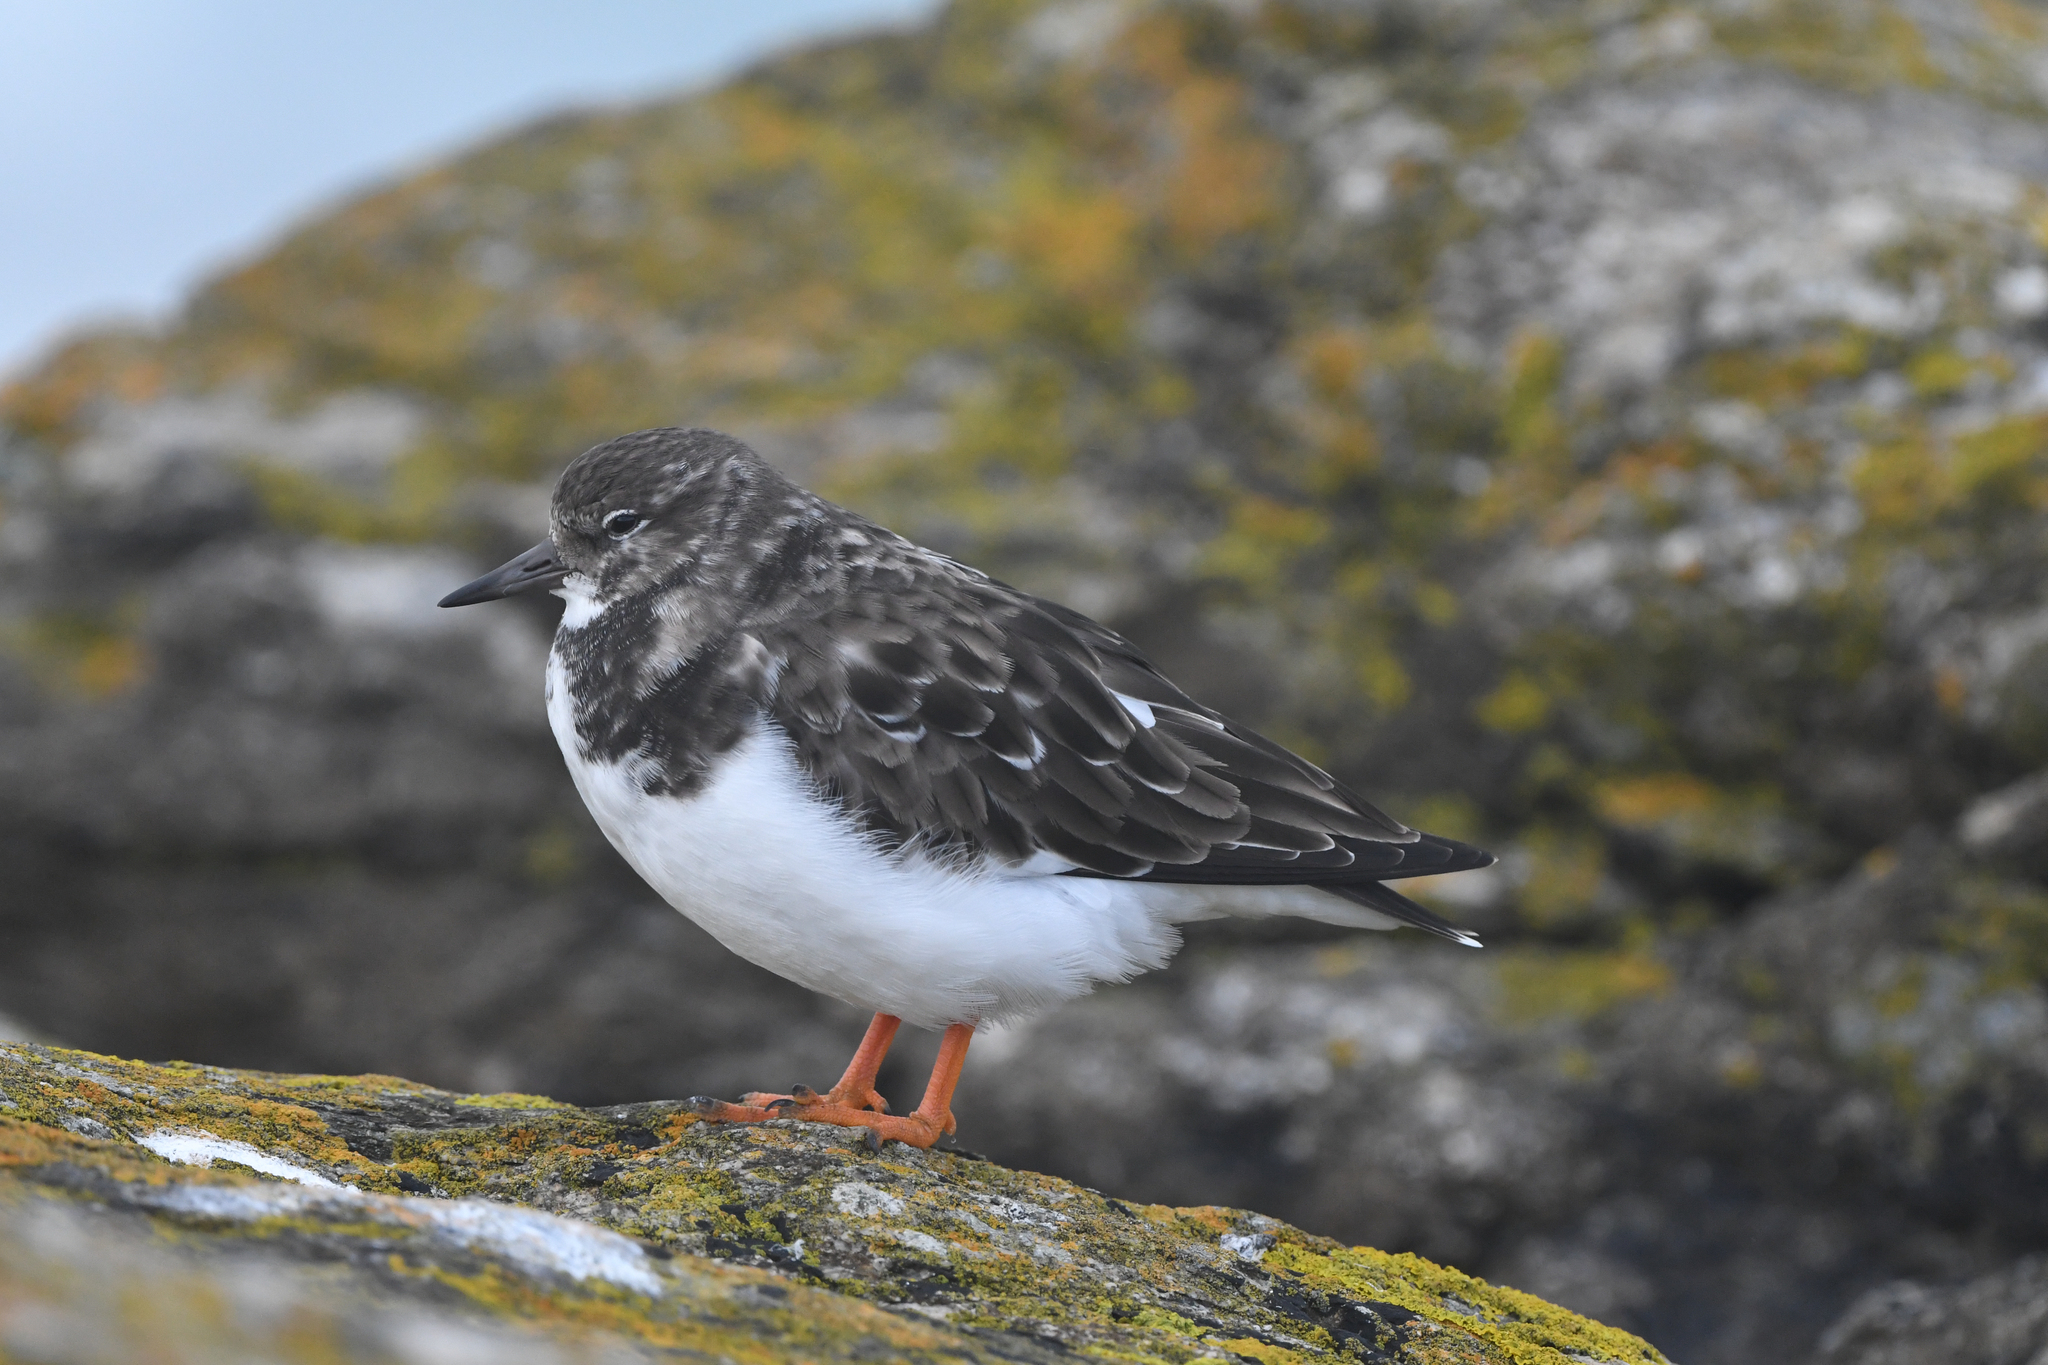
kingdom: Animalia
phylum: Chordata
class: Aves
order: Charadriiformes
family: Scolopacidae
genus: Arenaria
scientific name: Arenaria interpres
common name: Ruddy turnstone
